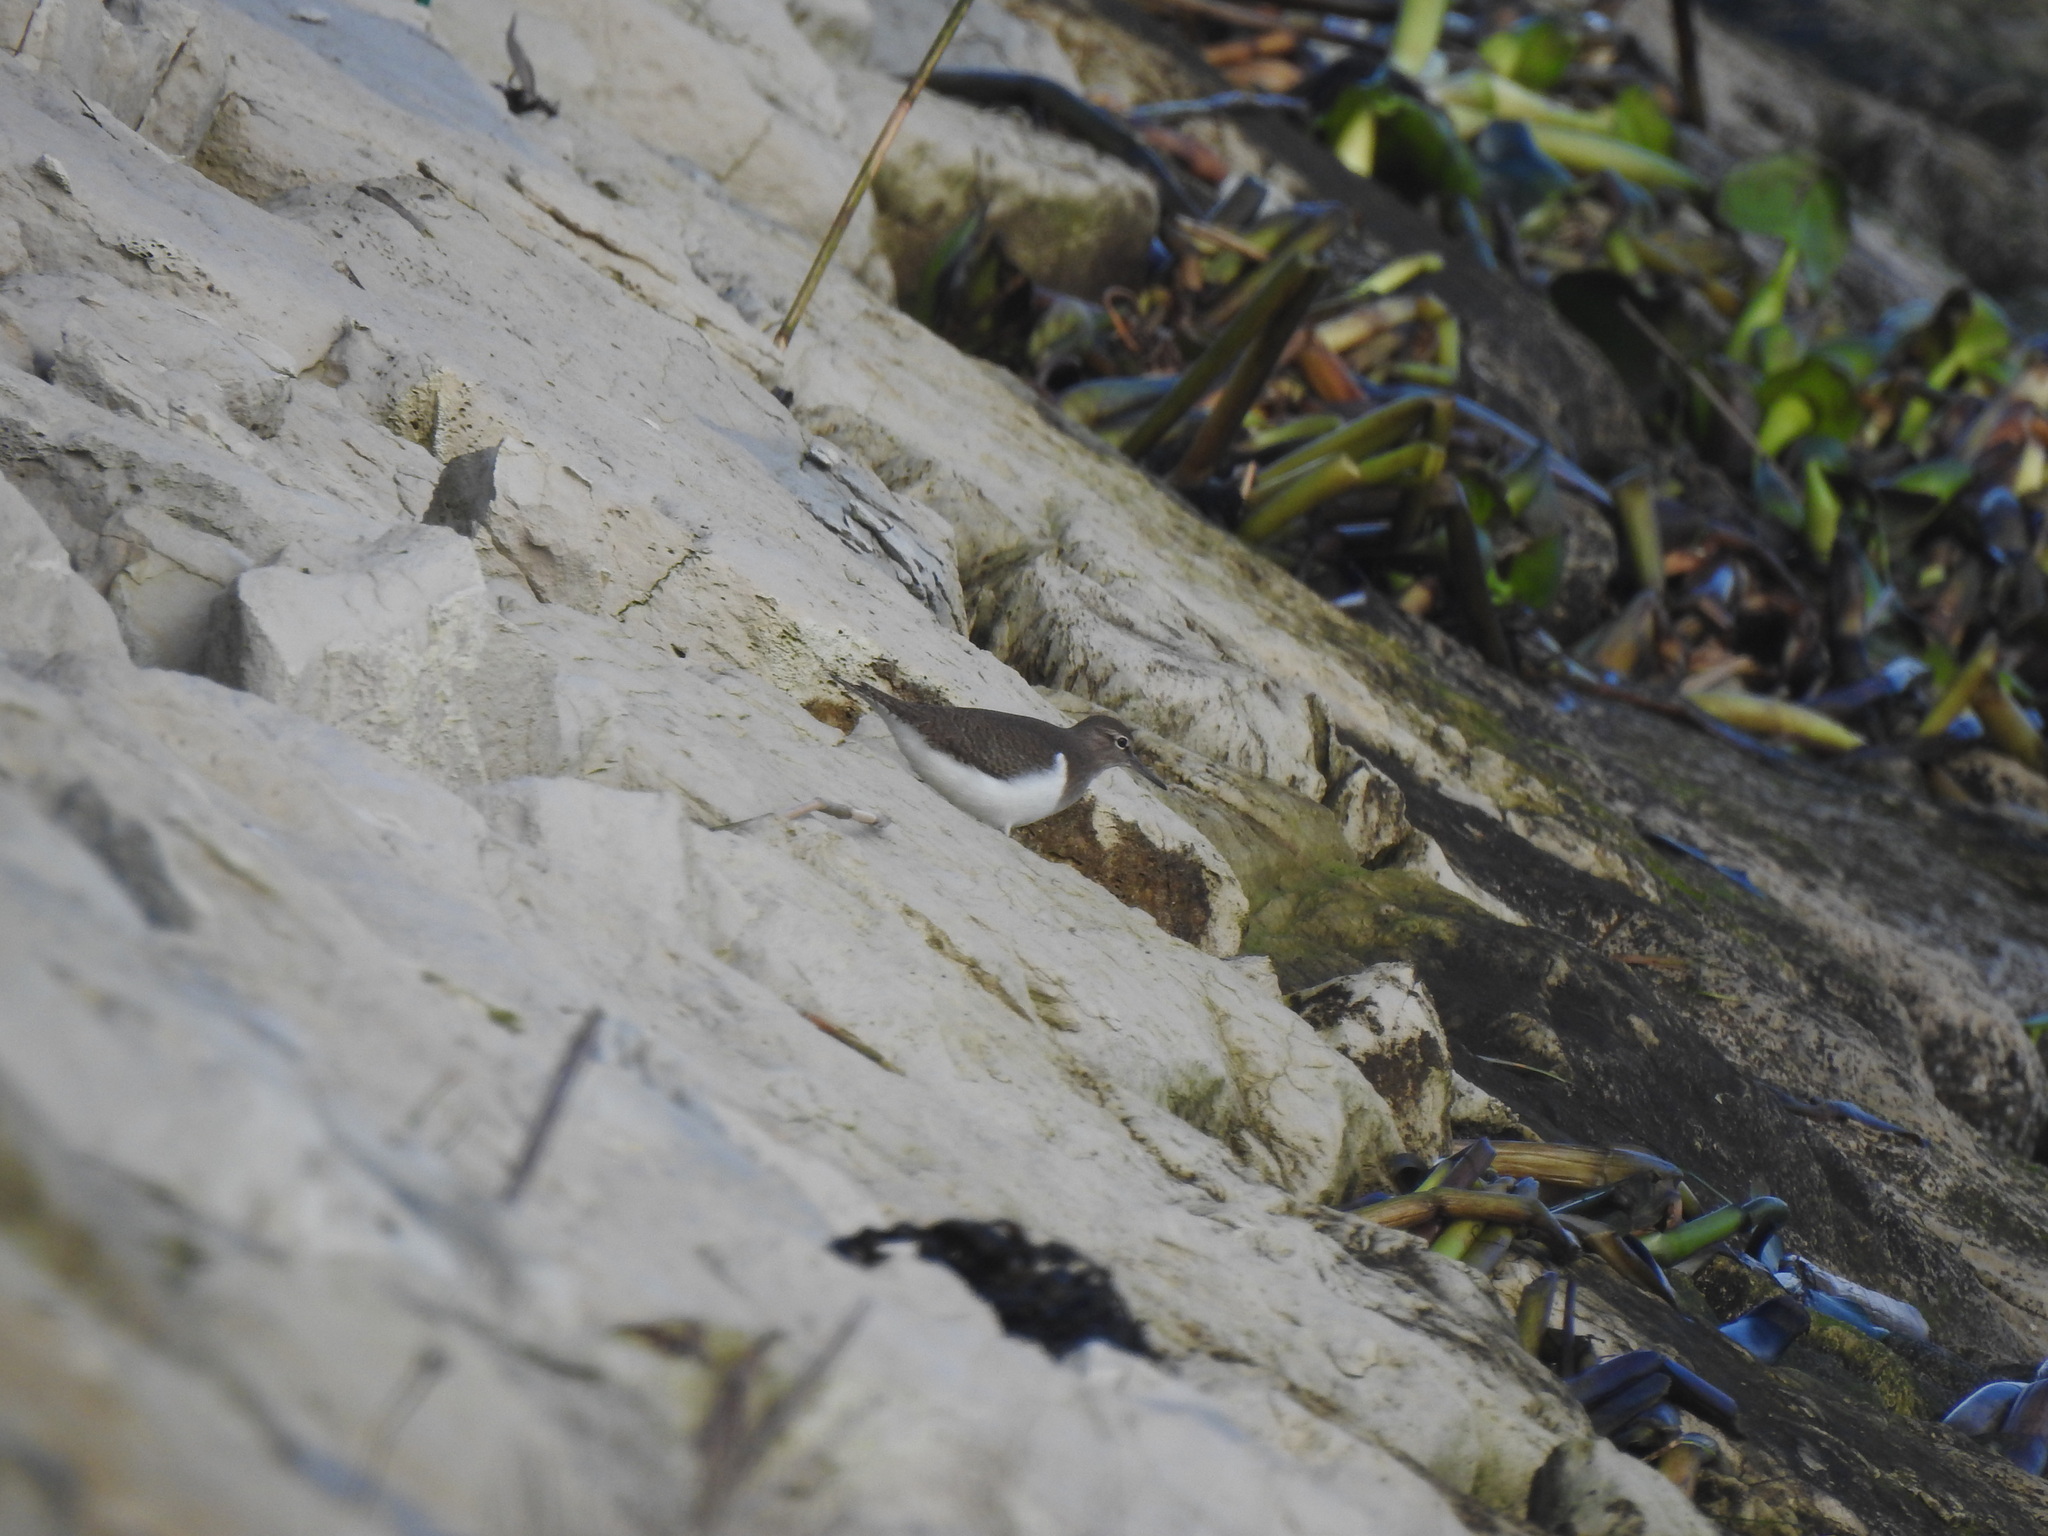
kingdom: Animalia
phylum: Chordata
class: Aves
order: Charadriiformes
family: Scolopacidae
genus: Actitis
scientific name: Actitis hypoleucos
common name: Common sandpiper
